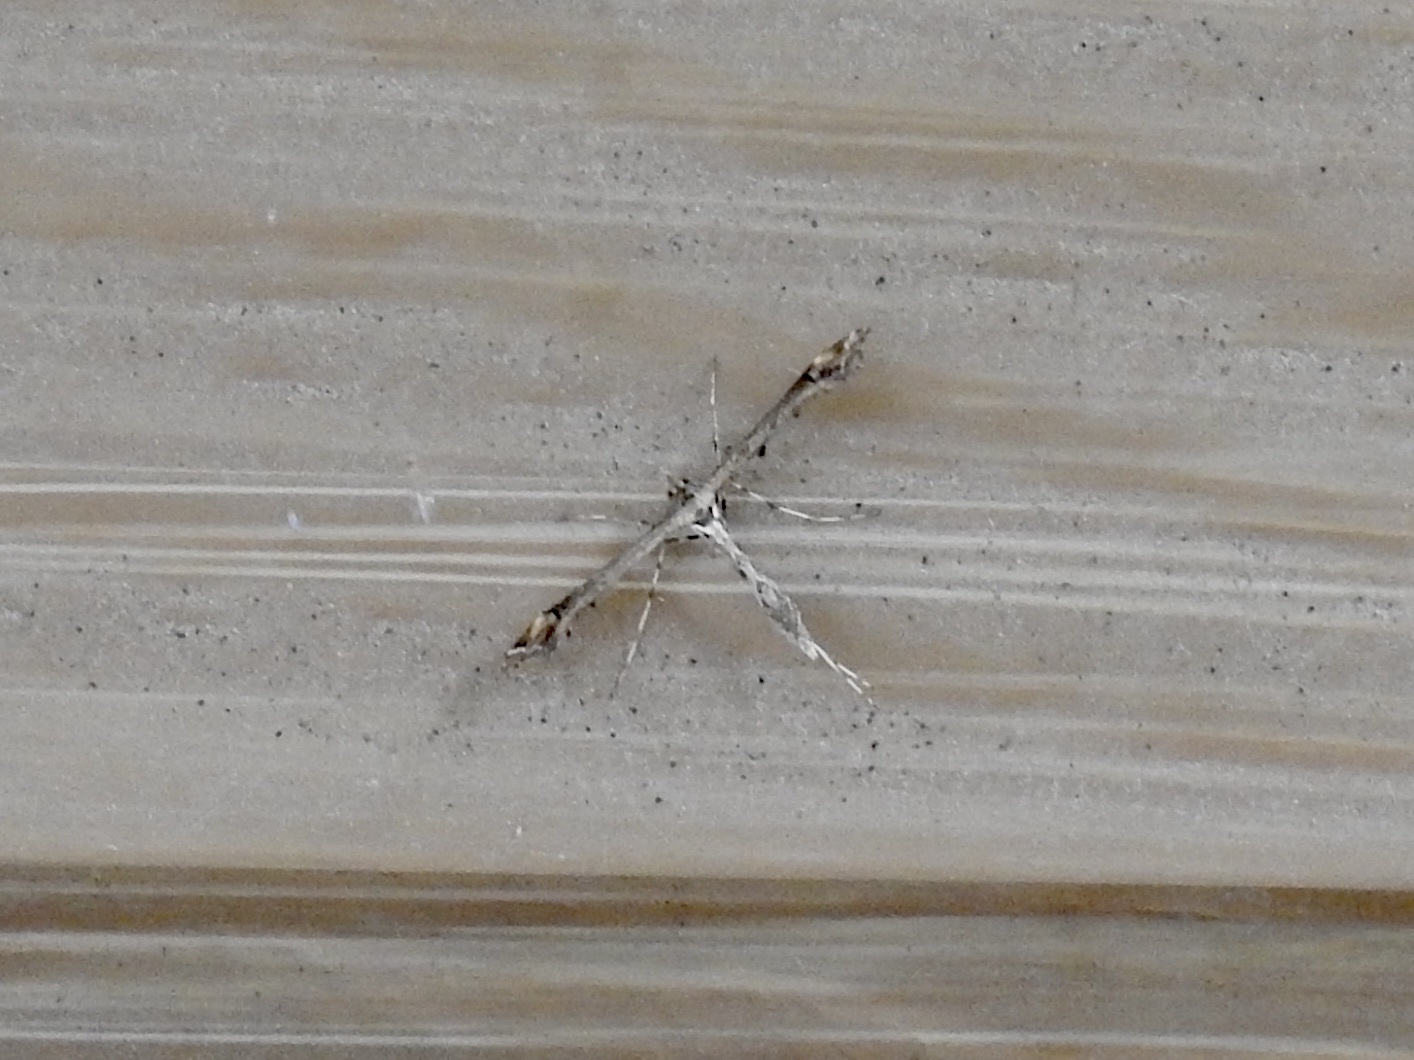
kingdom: Animalia
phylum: Arthropoda
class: Insecta
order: Lepidoptera
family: Pterophoridae
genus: Anstenoptilia
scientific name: Anstenoptilia marmarodactyla
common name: Moth
